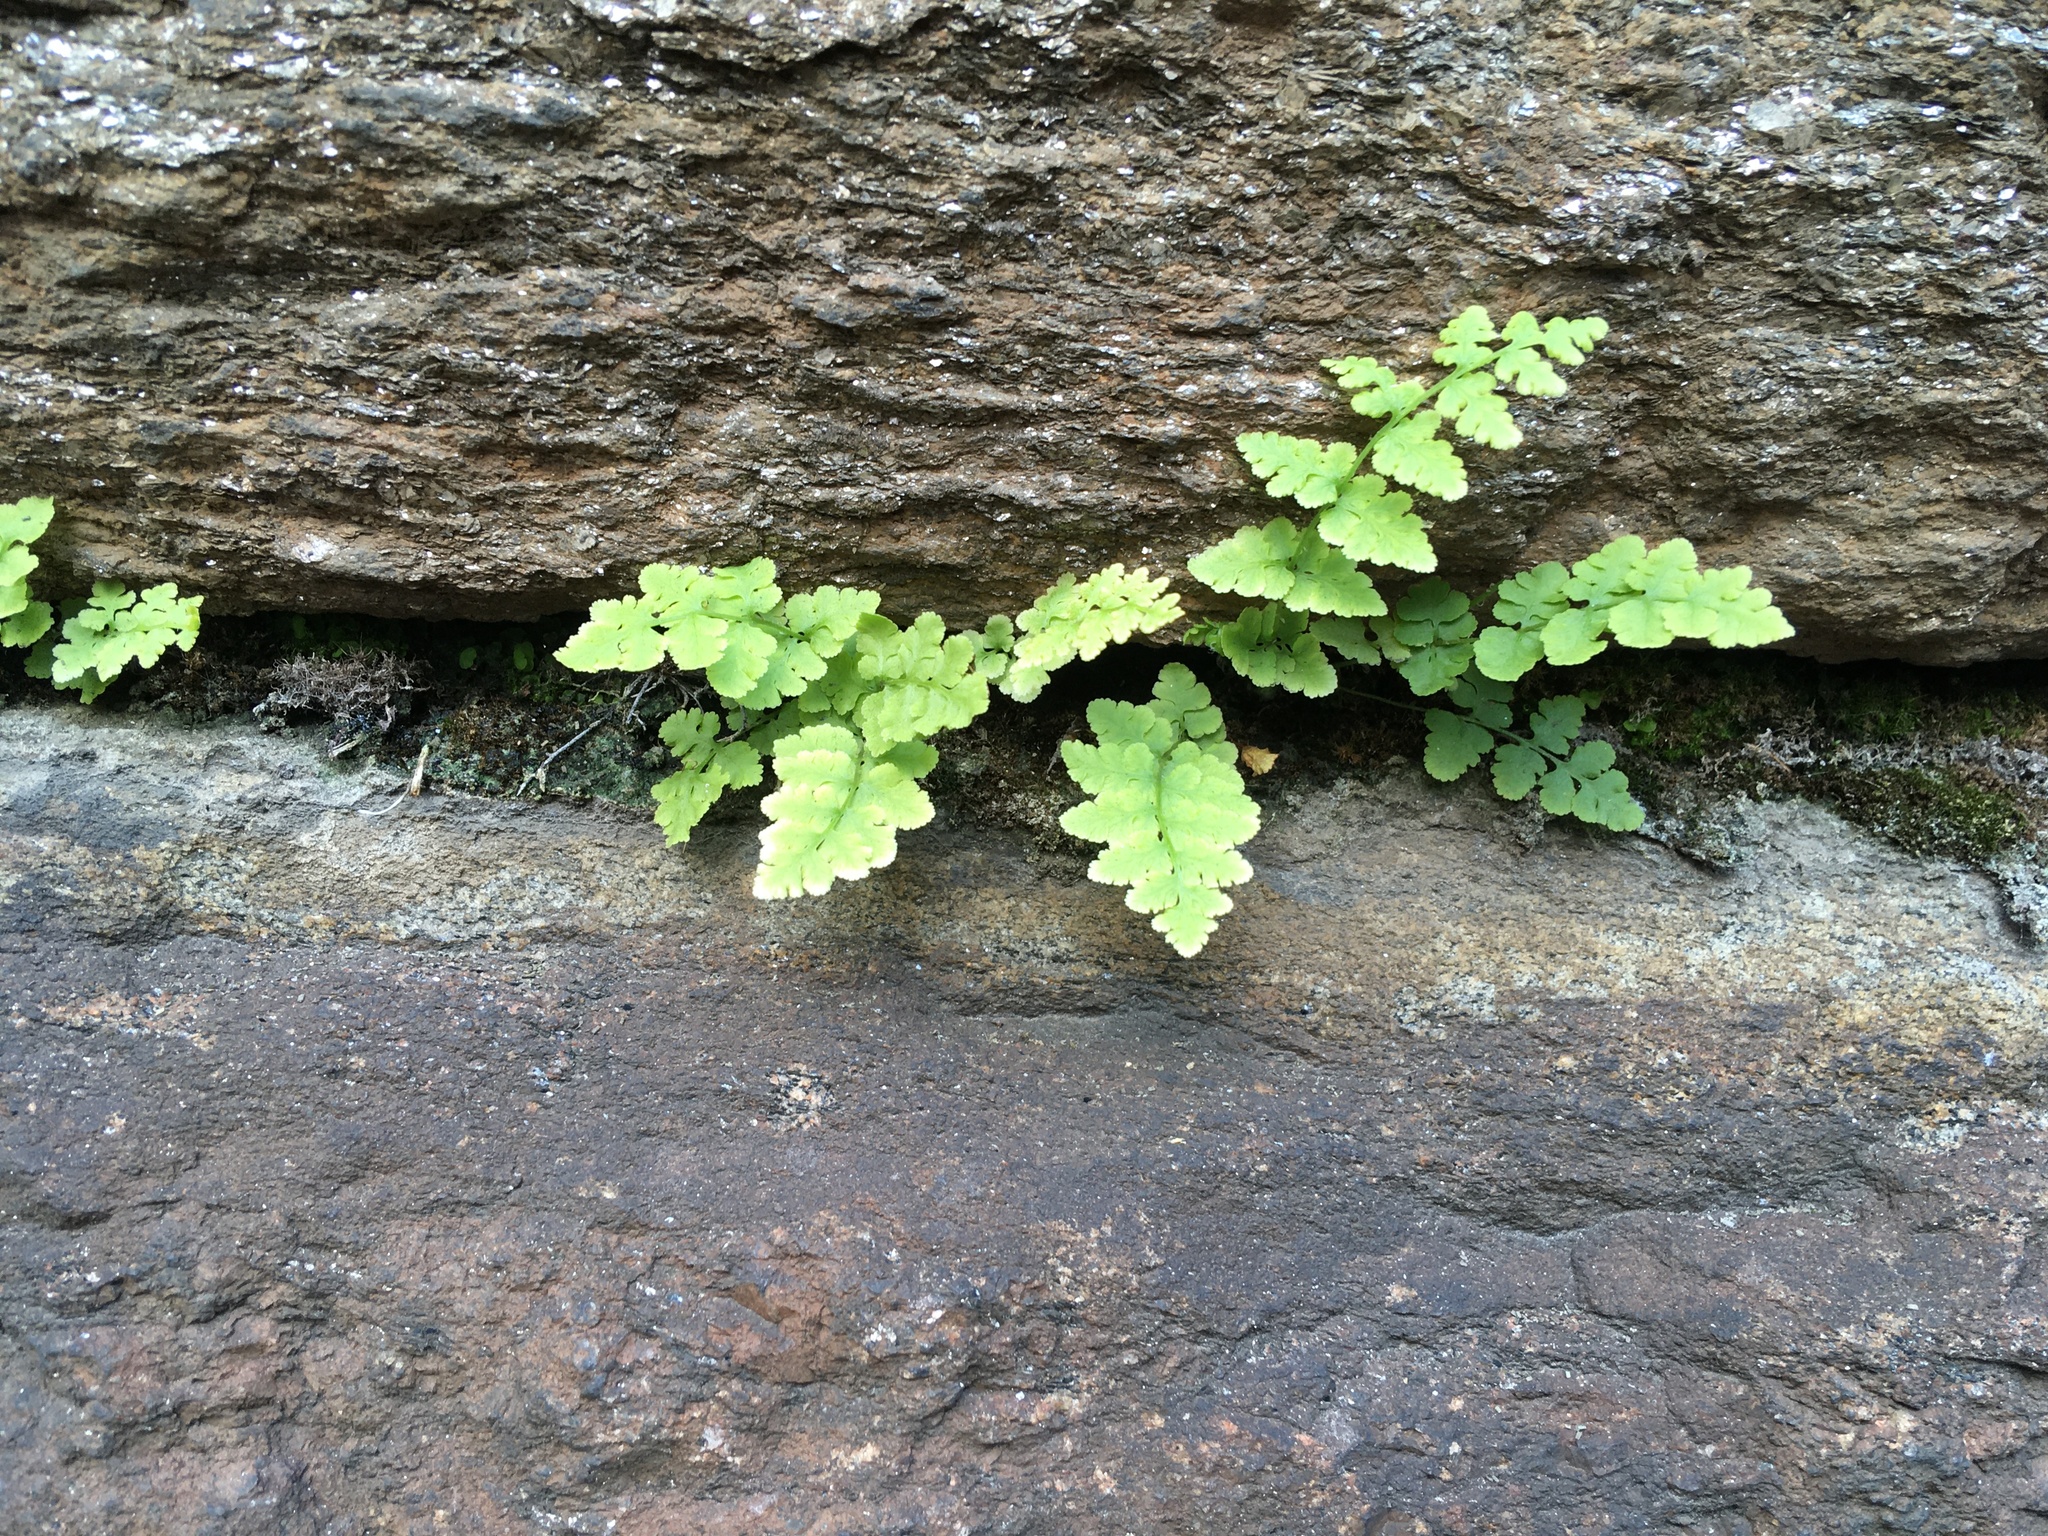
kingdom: Plantae
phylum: Tracheophyta
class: Polypodiopsida
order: Polypodiales
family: Woodsiaceae
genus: Physematium
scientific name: Physematium obtusum
